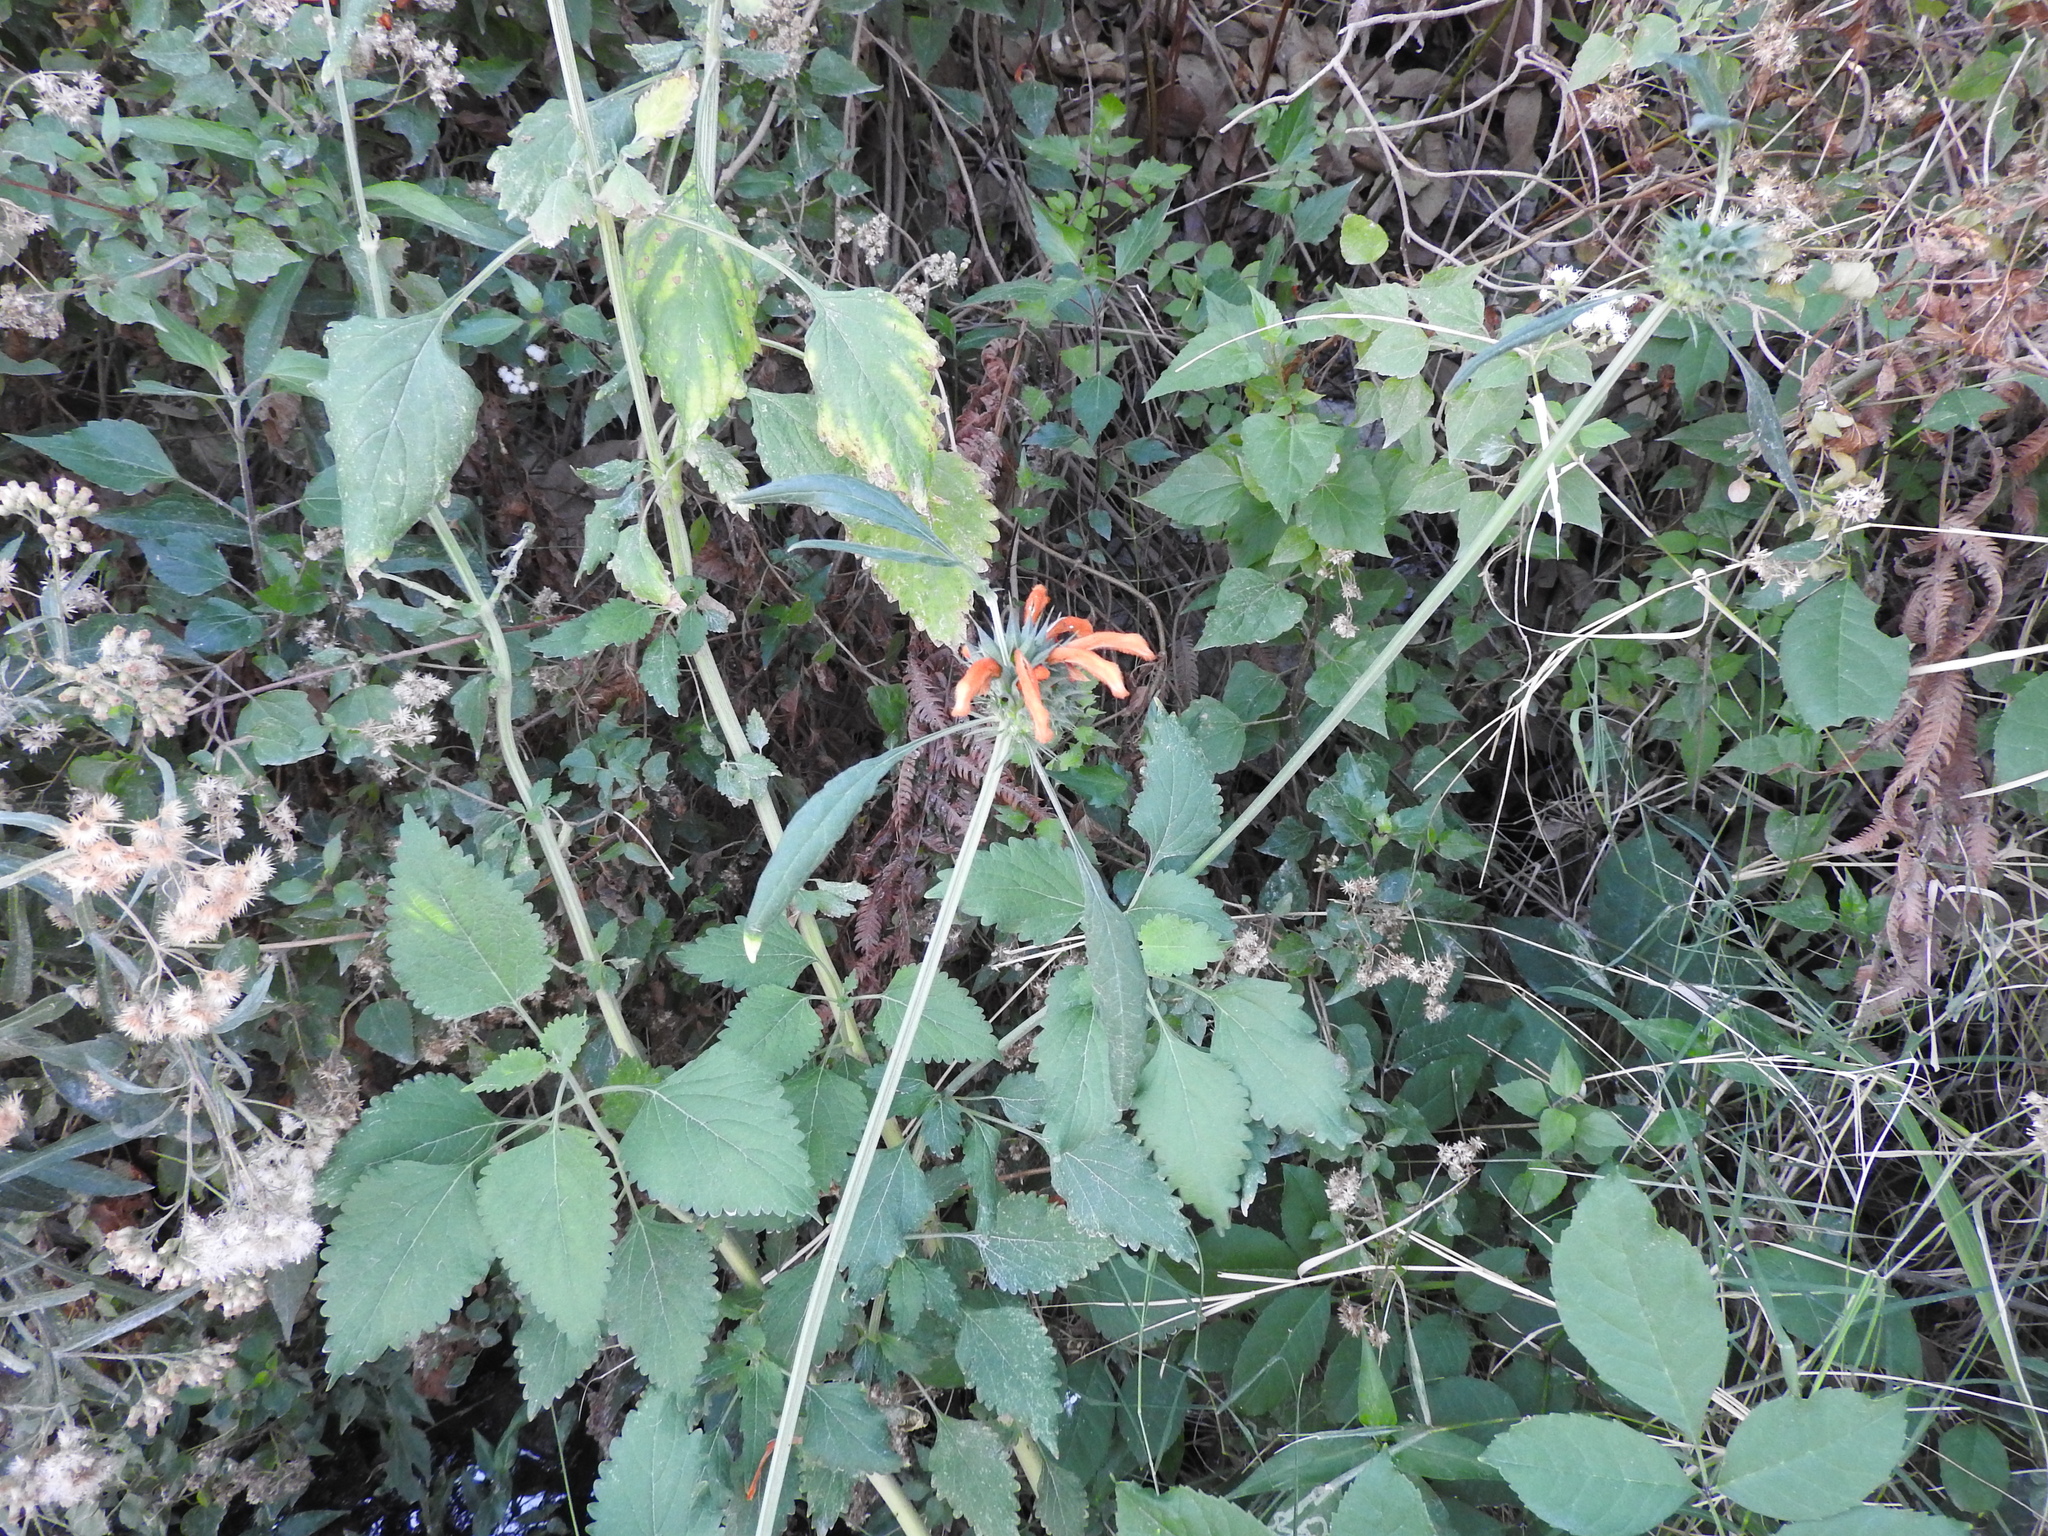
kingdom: Plantae
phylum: Tracheophyta
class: Magnoliopsida
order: Lamiales
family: Lamiaceae
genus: Leonotis
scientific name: Leonotis nepetifolia
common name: Christmas candlestick
